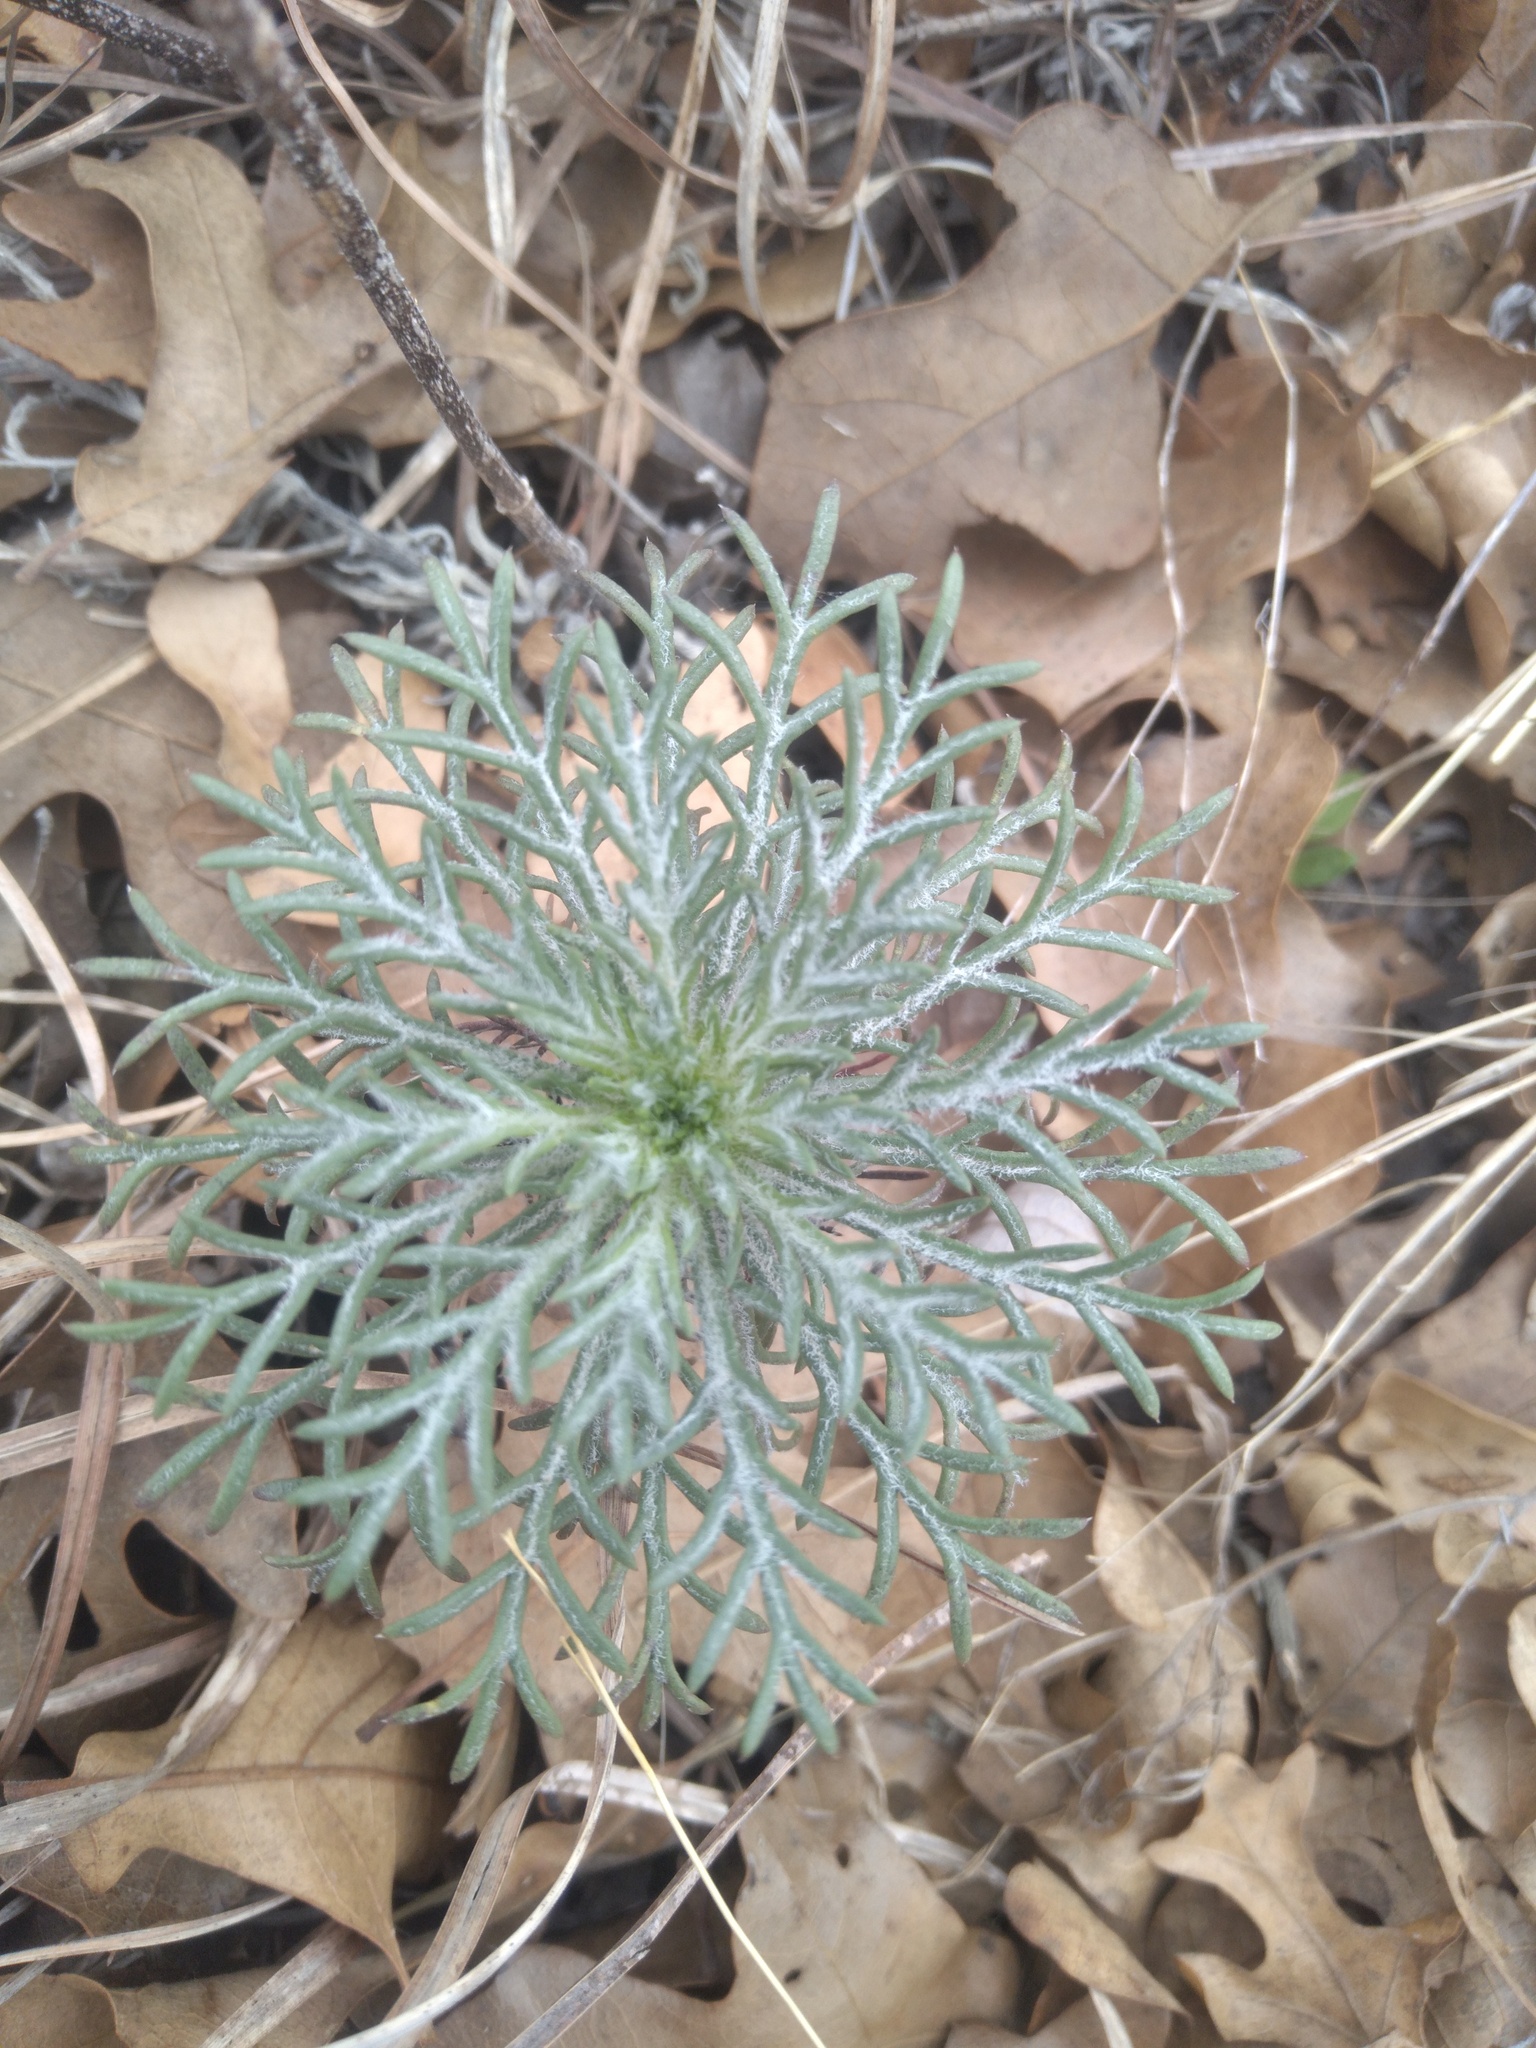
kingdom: Plantae
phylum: Tracheophyta
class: Magnoliopsida
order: Ericales
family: Polemoniaceae
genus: Ipomopsis
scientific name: Ipomopsis rubra
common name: Skyrocket
